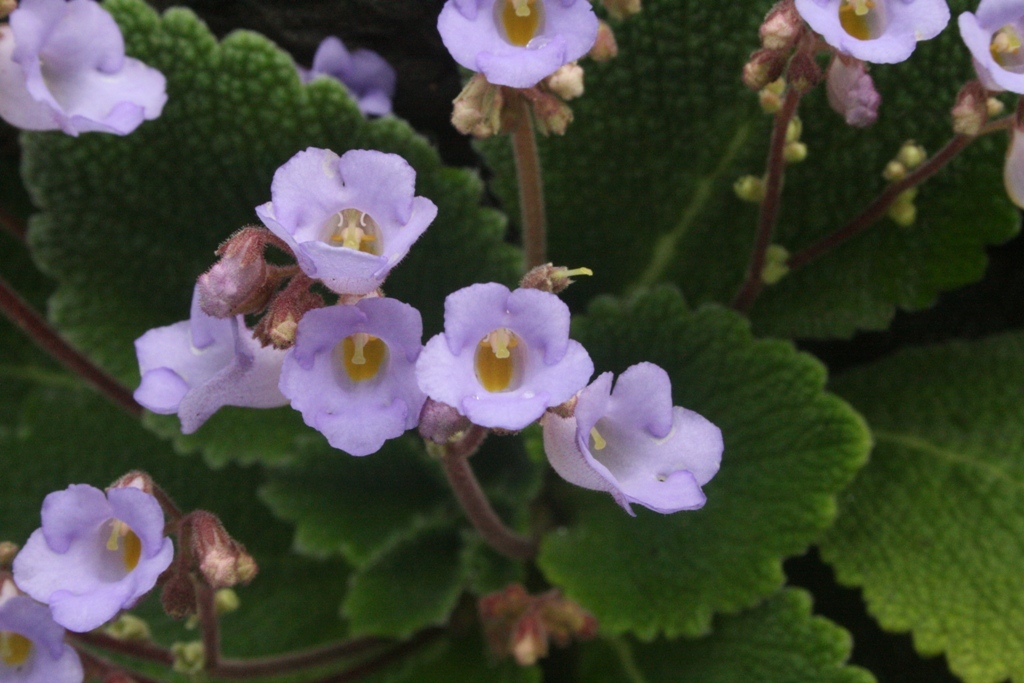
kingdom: Plantae
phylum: Tracheophyta
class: Magnoliopsida
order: Lamiales
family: Gesneriaceae
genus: Henckelia
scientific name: Henckelia incana
